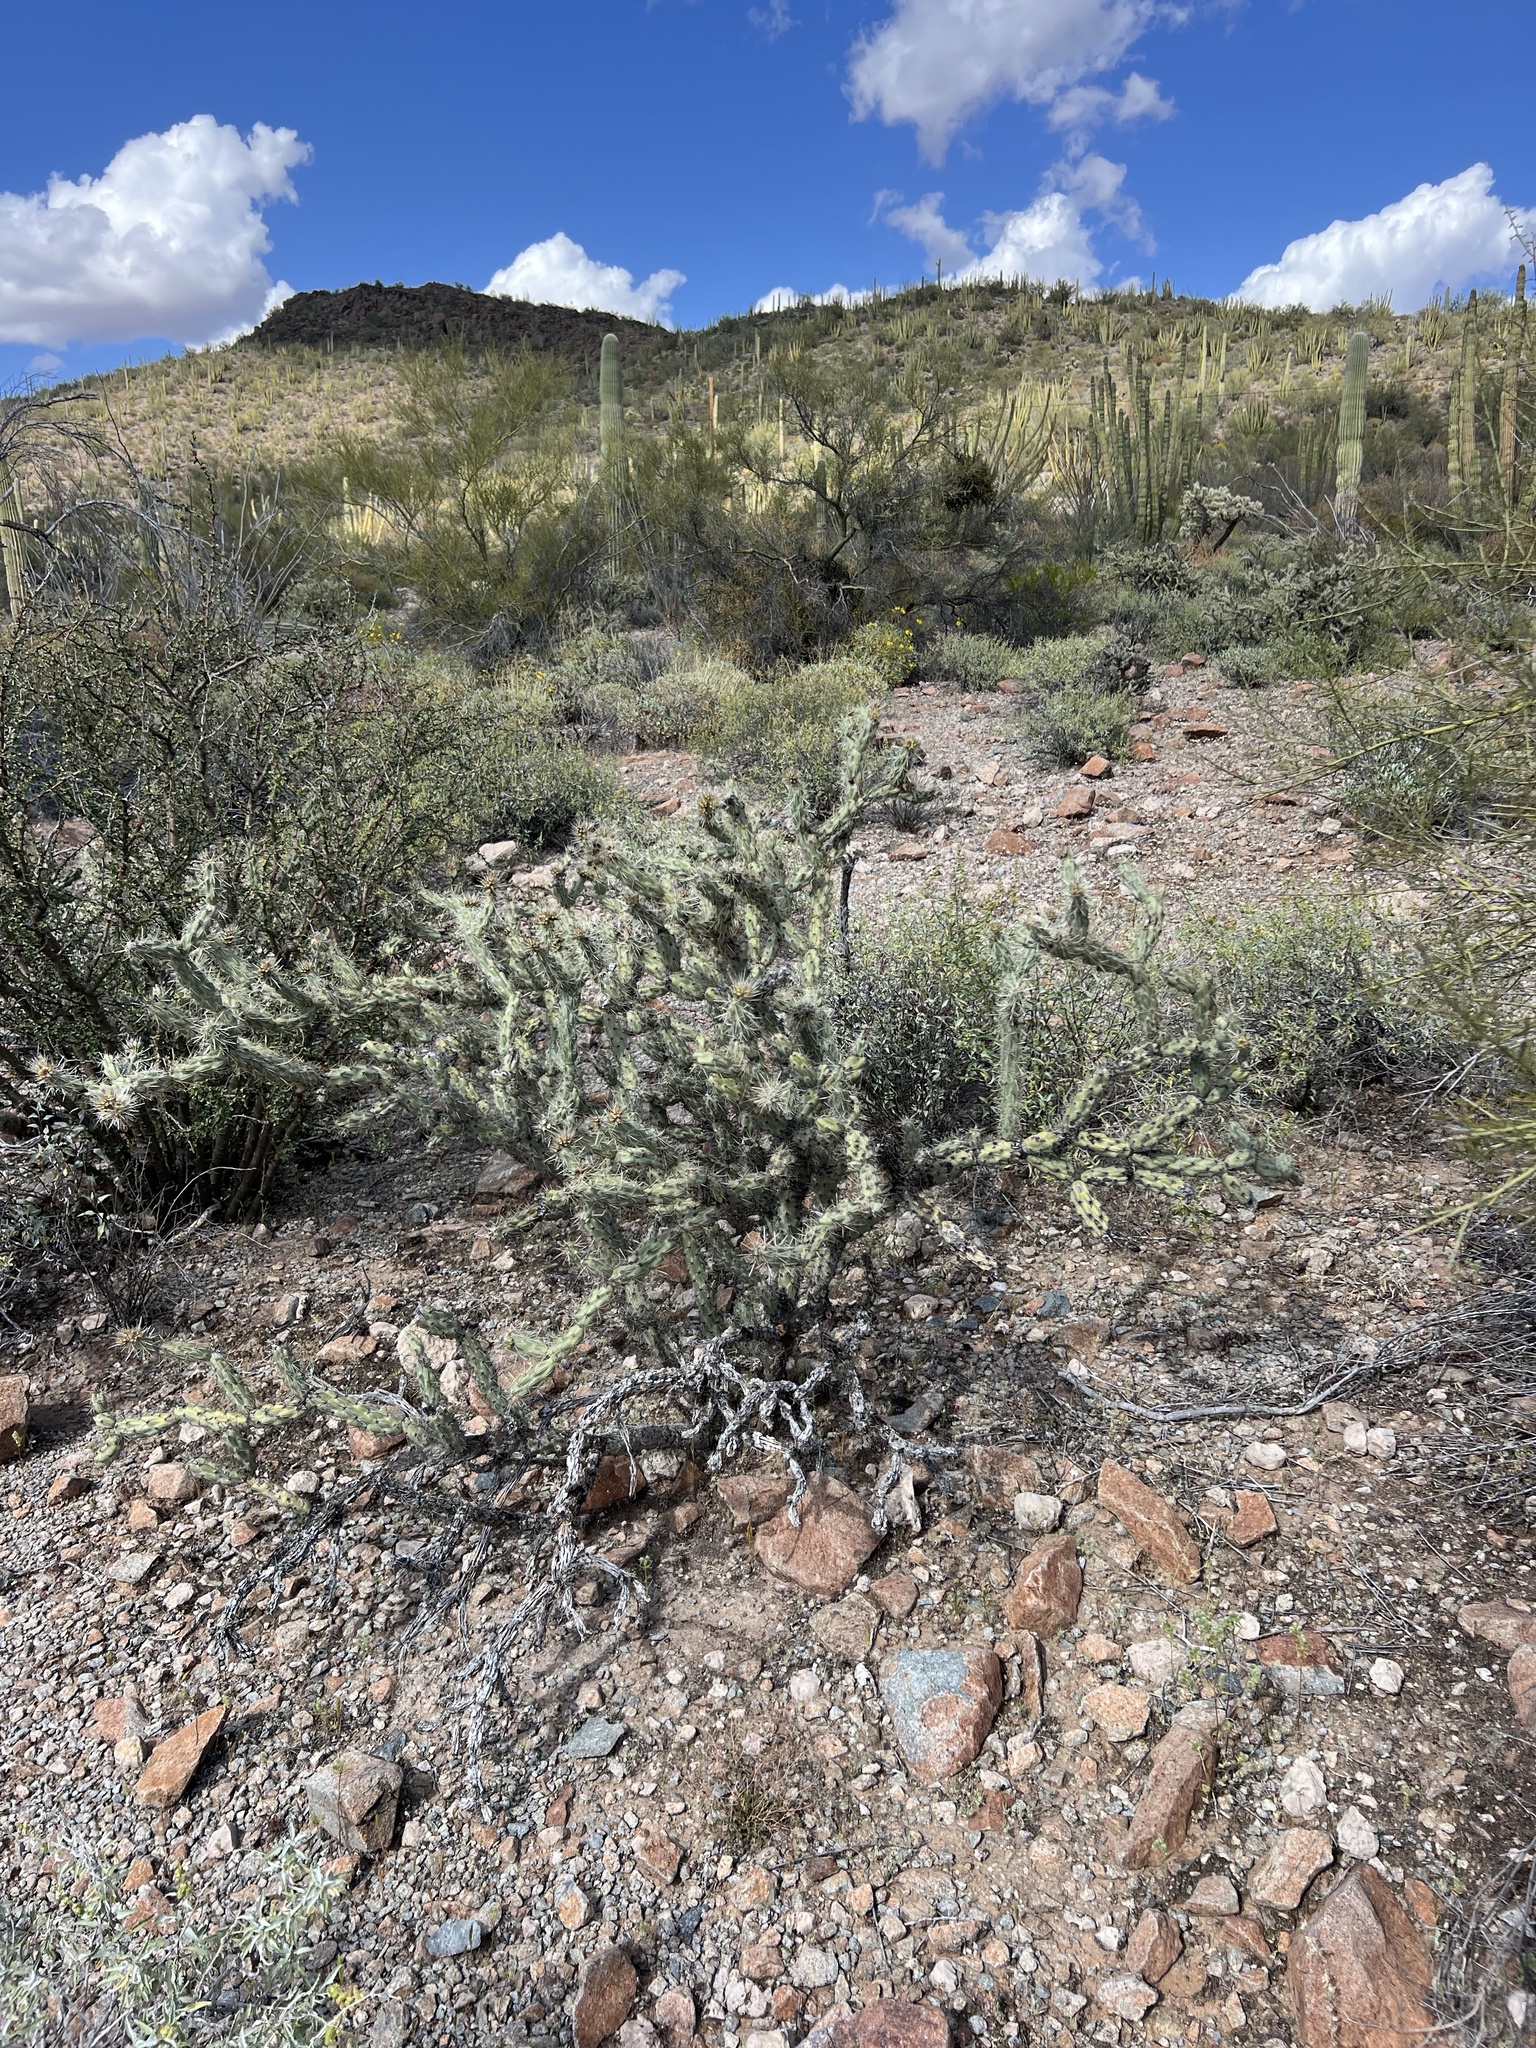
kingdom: Plantae
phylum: Tracheophyta
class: Magnoliopsida
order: Caryophyllales
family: Cactaceae
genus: Cylindropuntia
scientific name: Cylindropuntia acanthocarpa
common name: Buckhorn cholla
